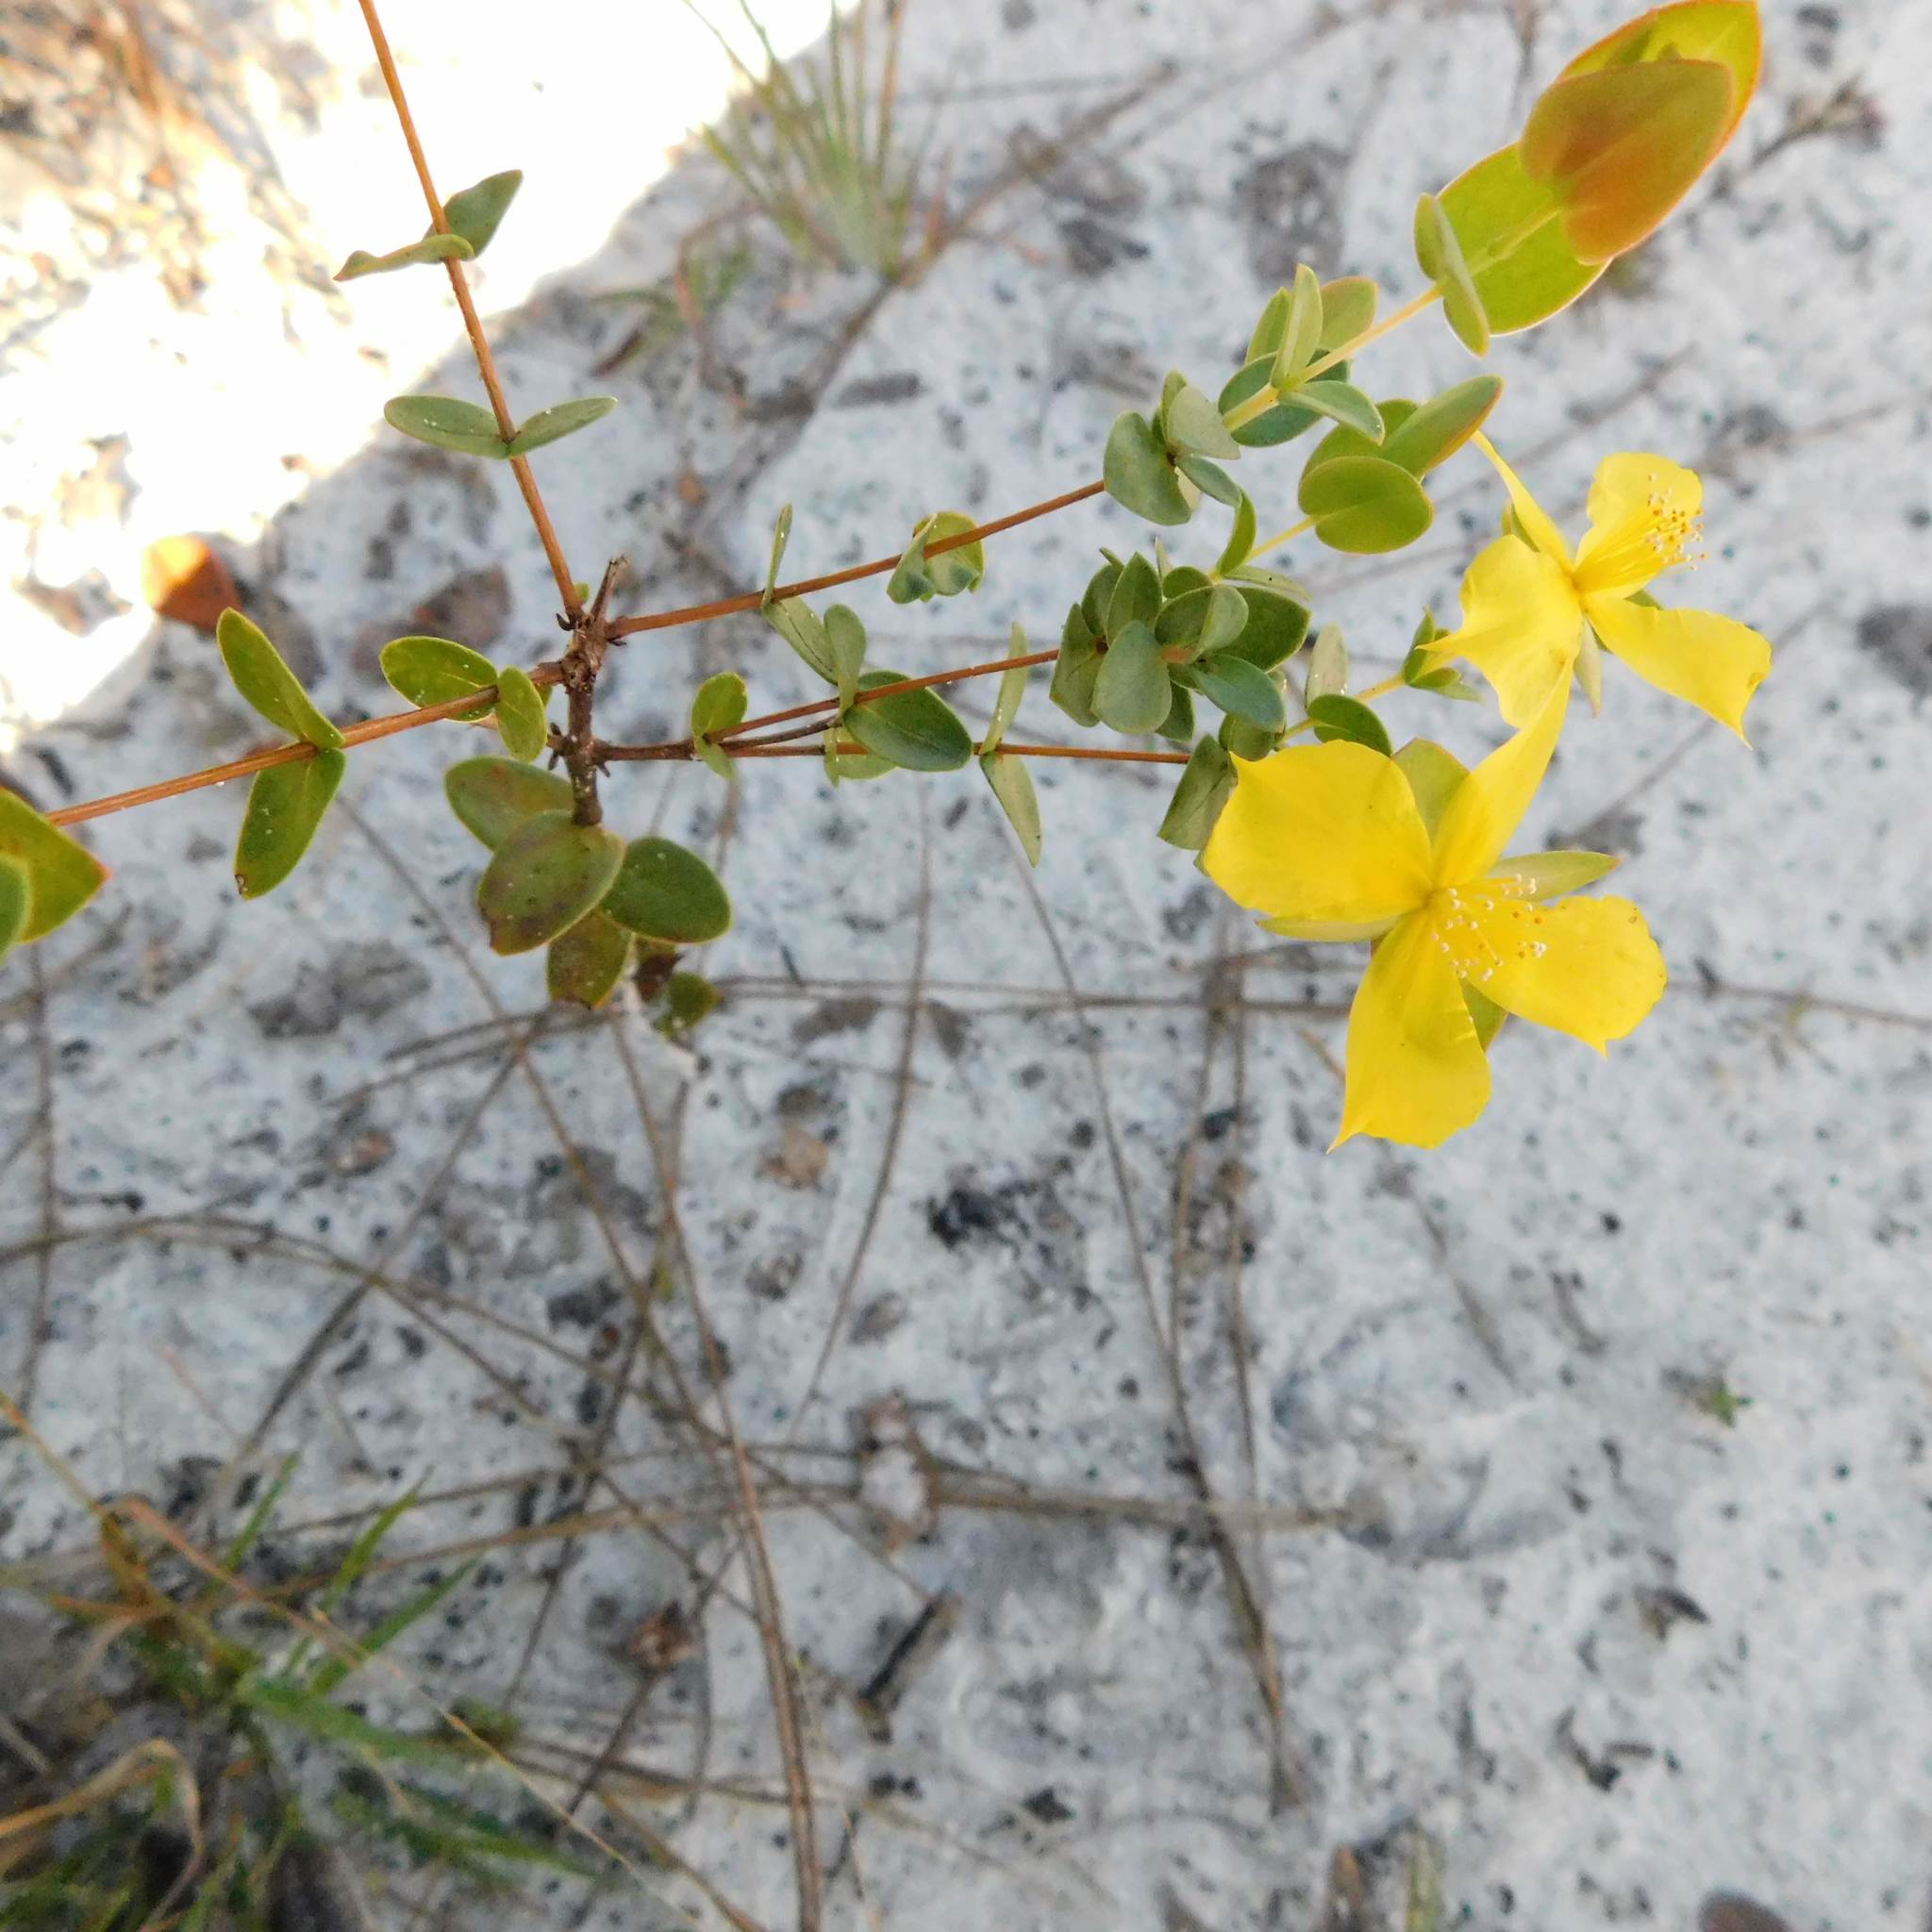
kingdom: Plantae
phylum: Tracheophyta
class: Magnoliopsida
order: Malpighiales
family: Hypericaceae
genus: Hypericum
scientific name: Hypericum tetrapetalum
